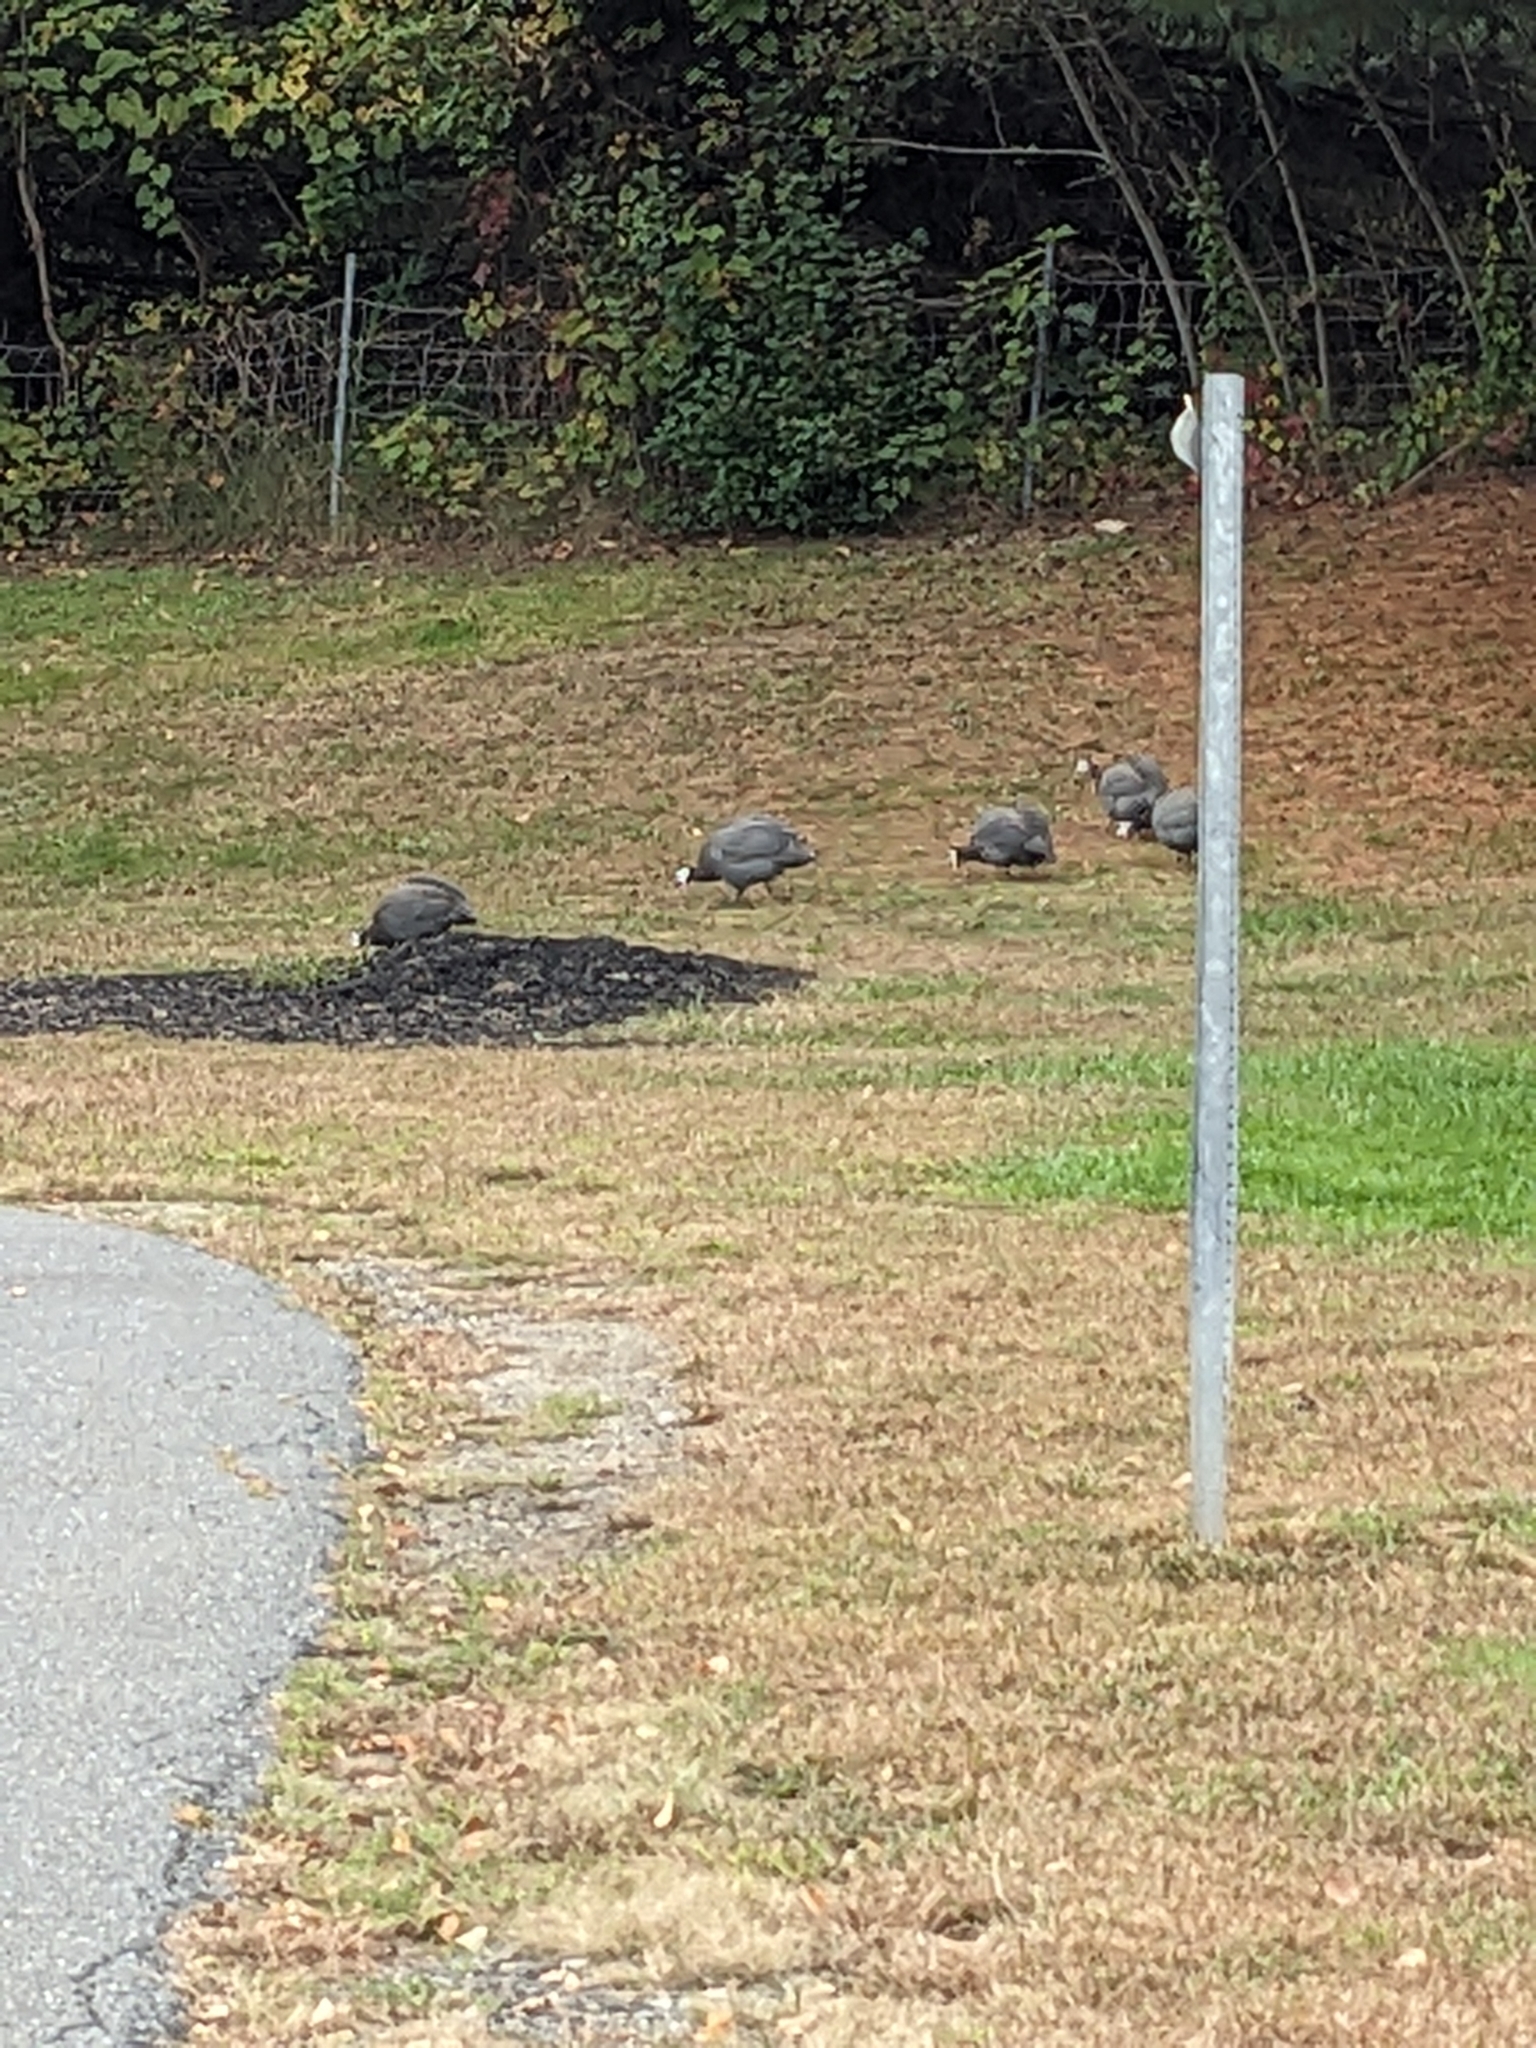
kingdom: Animalia
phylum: Chordata
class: Aves
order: Galliformes
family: Numididae
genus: Numida
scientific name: Numida meleagris
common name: Helmeted guineafowl
